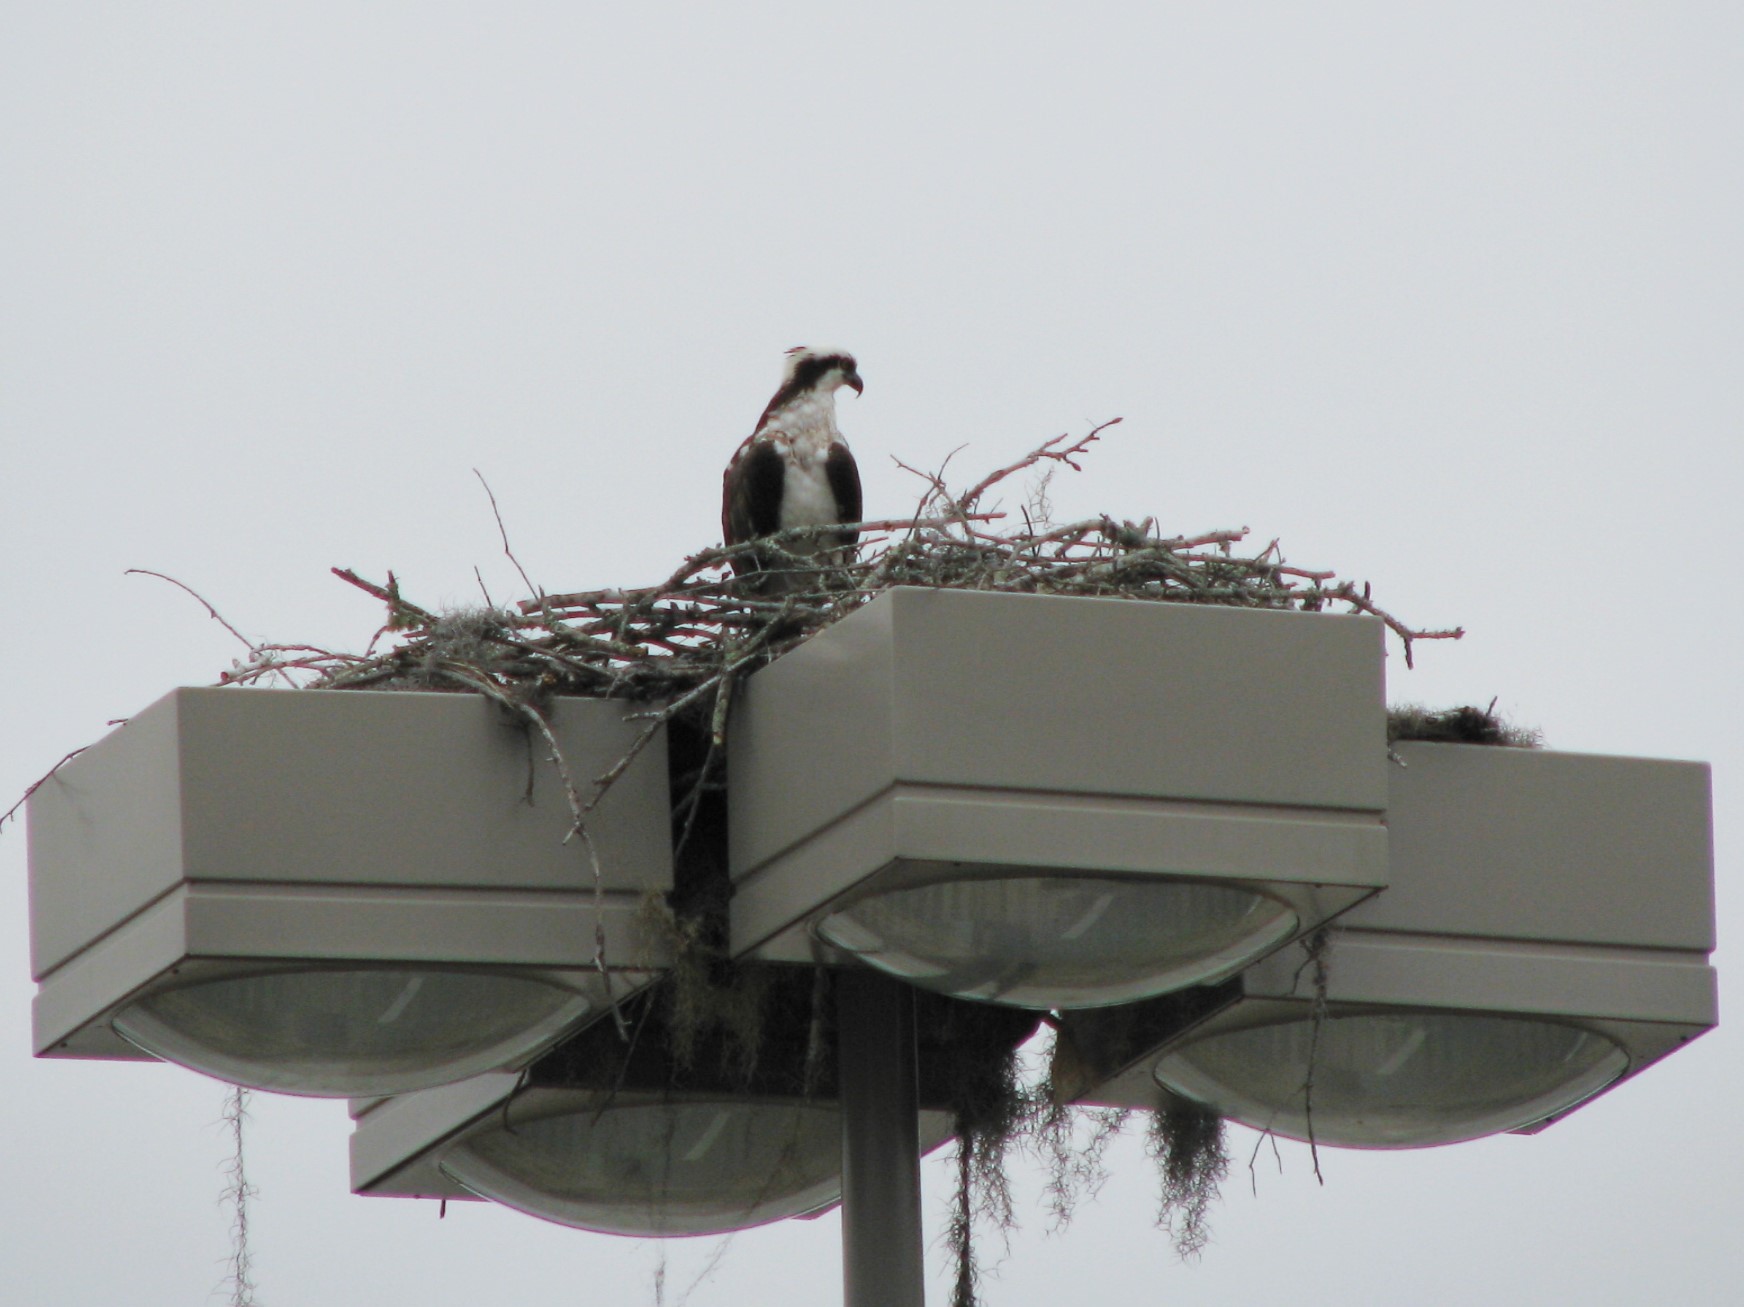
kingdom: Animalia
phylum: Chordata
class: Aves
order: Accipitriformes
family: Pandionidae
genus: Pandion
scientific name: Pandion haliaetus
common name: Osprey
